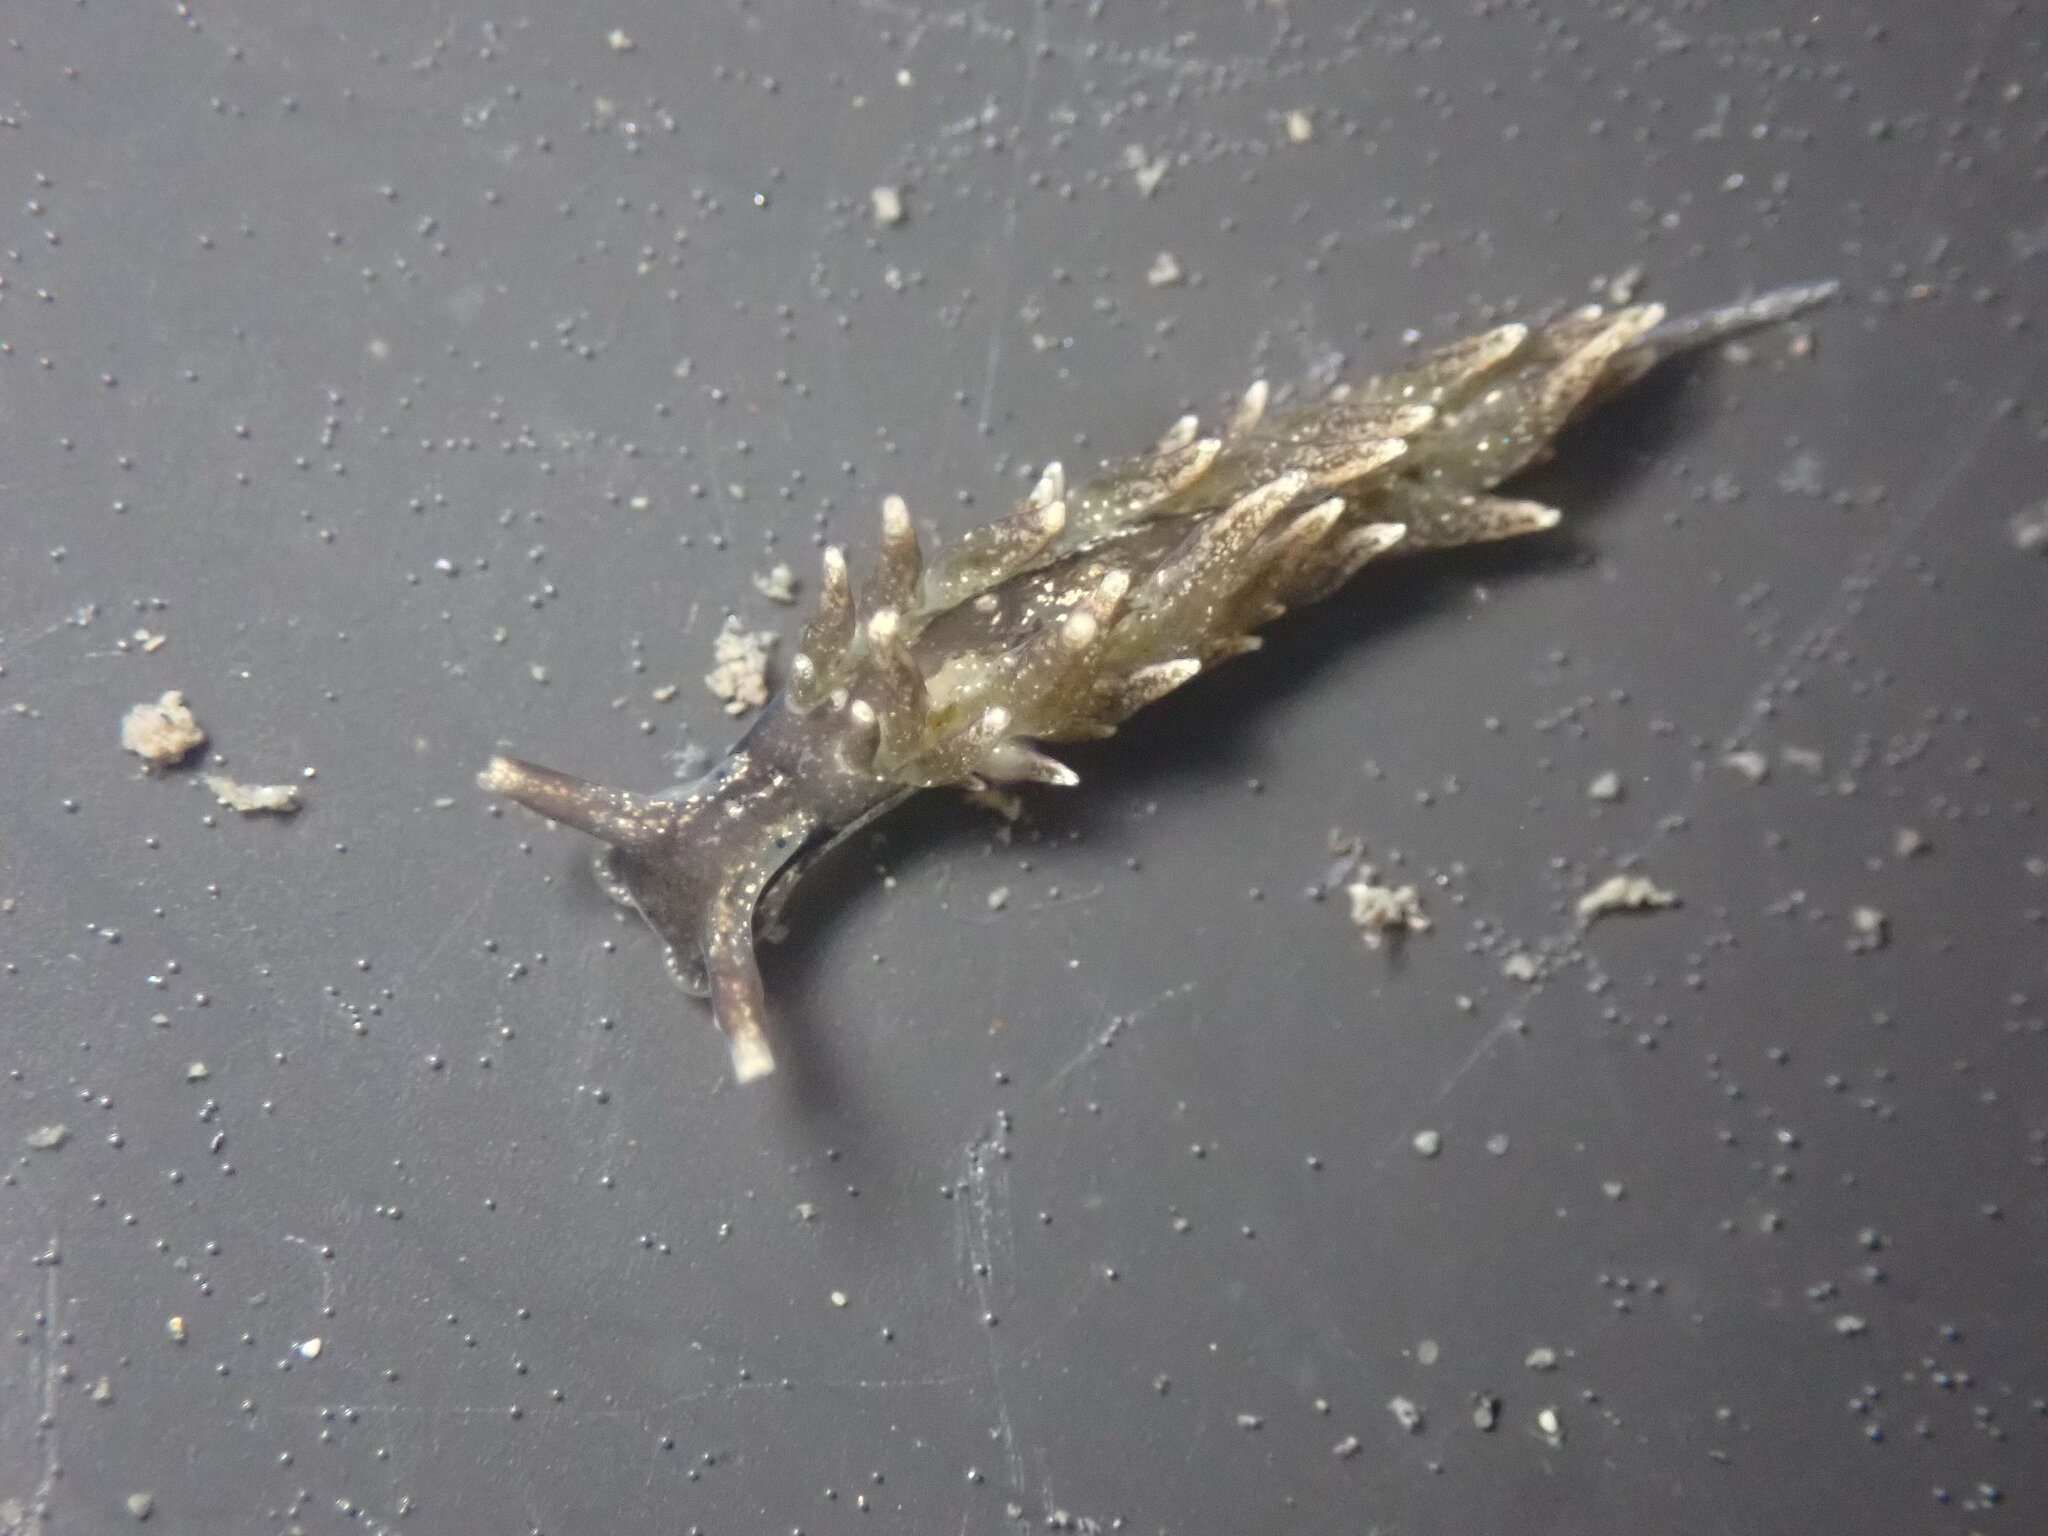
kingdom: Animalia
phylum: Mollusca
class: Gastropoda
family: Hermaeidae
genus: Aplysiopsis
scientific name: Aplysiopsis enteromorphae
